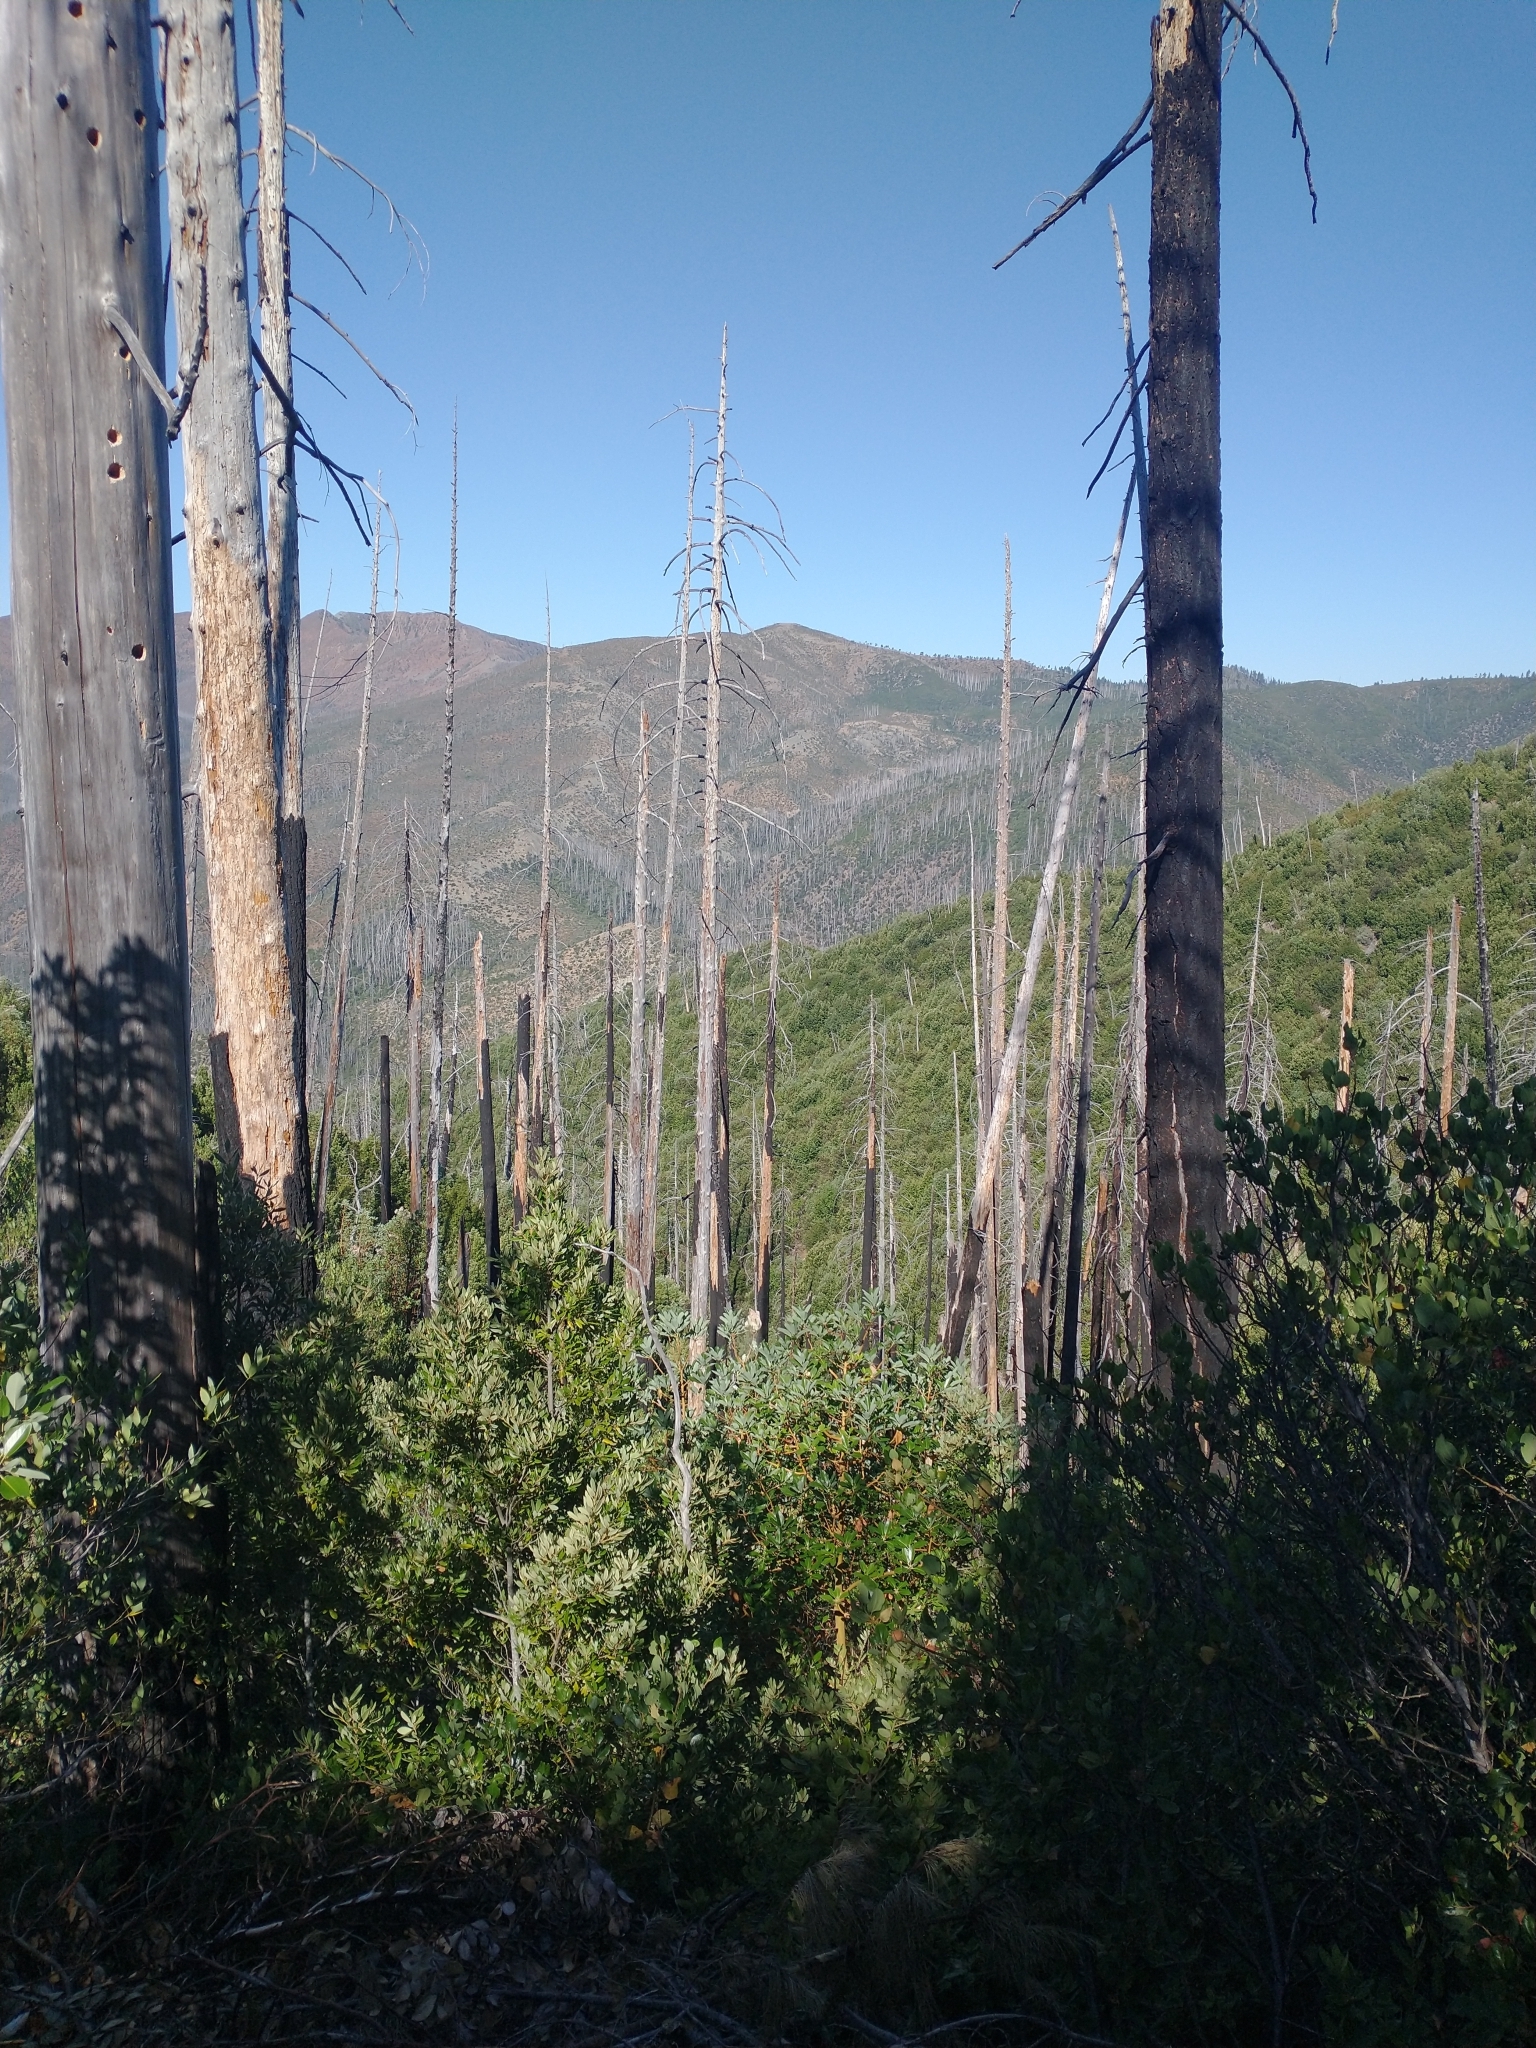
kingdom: Plantae
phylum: Tracheophyta
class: Magnoliopsida
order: Ericales
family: Ericaceae
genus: Arbutus
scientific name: Arbutus menziesii
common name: Pacific madrone
